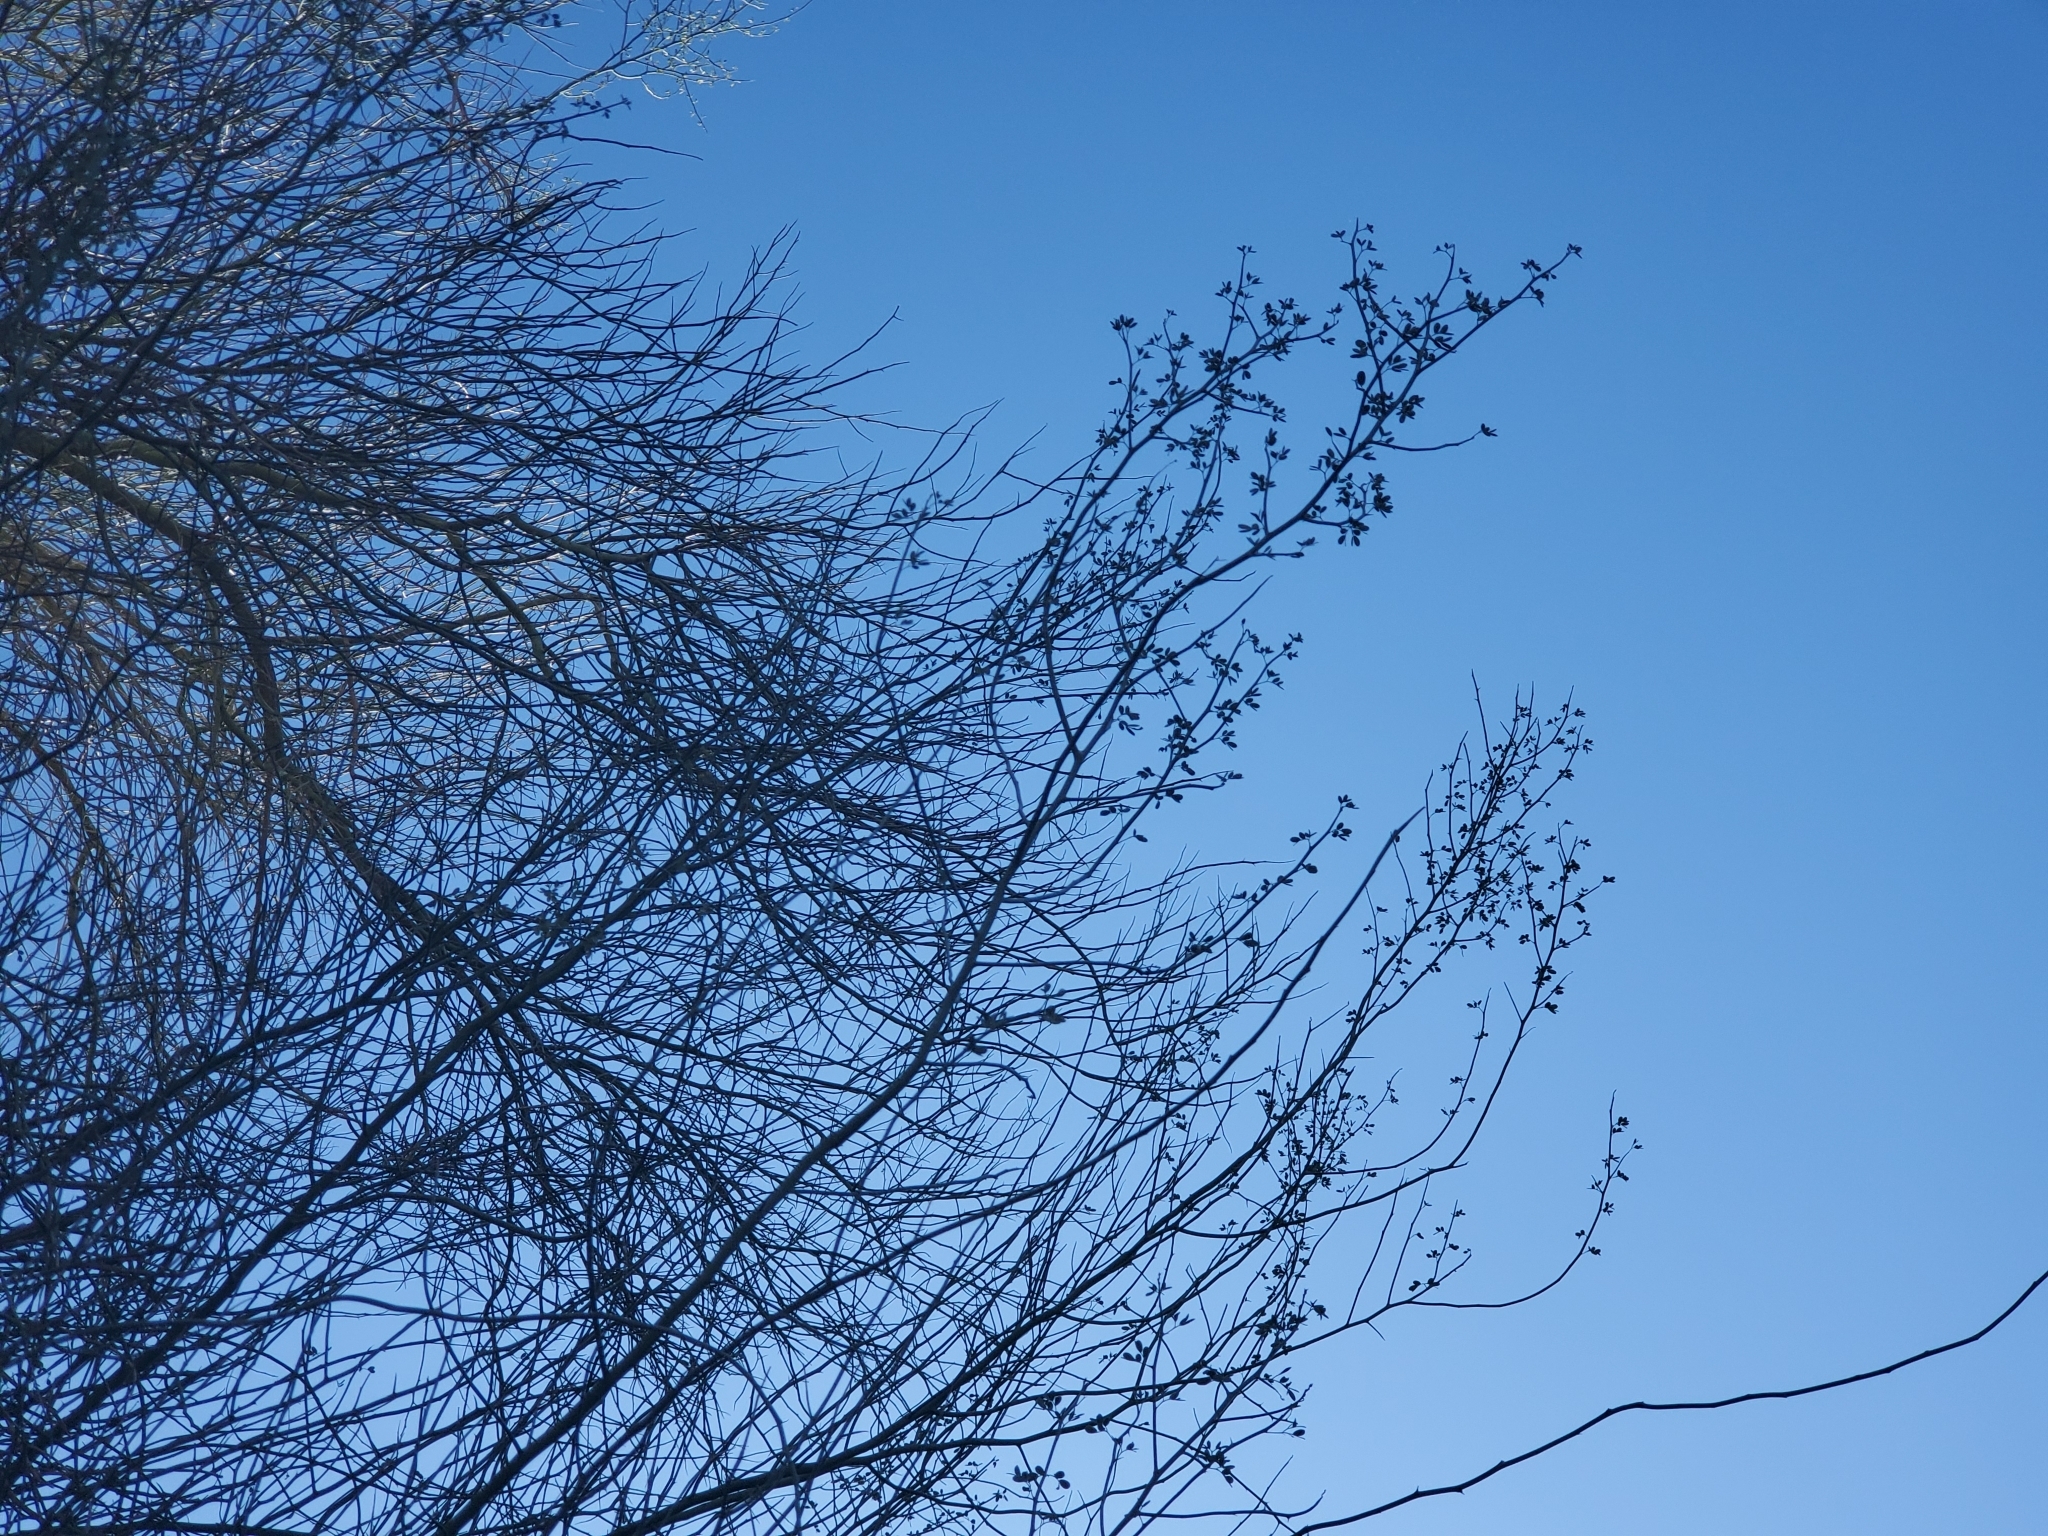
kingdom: Plantae
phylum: Tracheophyta
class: Magnoliopsida
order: Fabales
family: Fabaceae
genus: Parkinsonia
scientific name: Parkinsonia florida
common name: Blue paloverde
